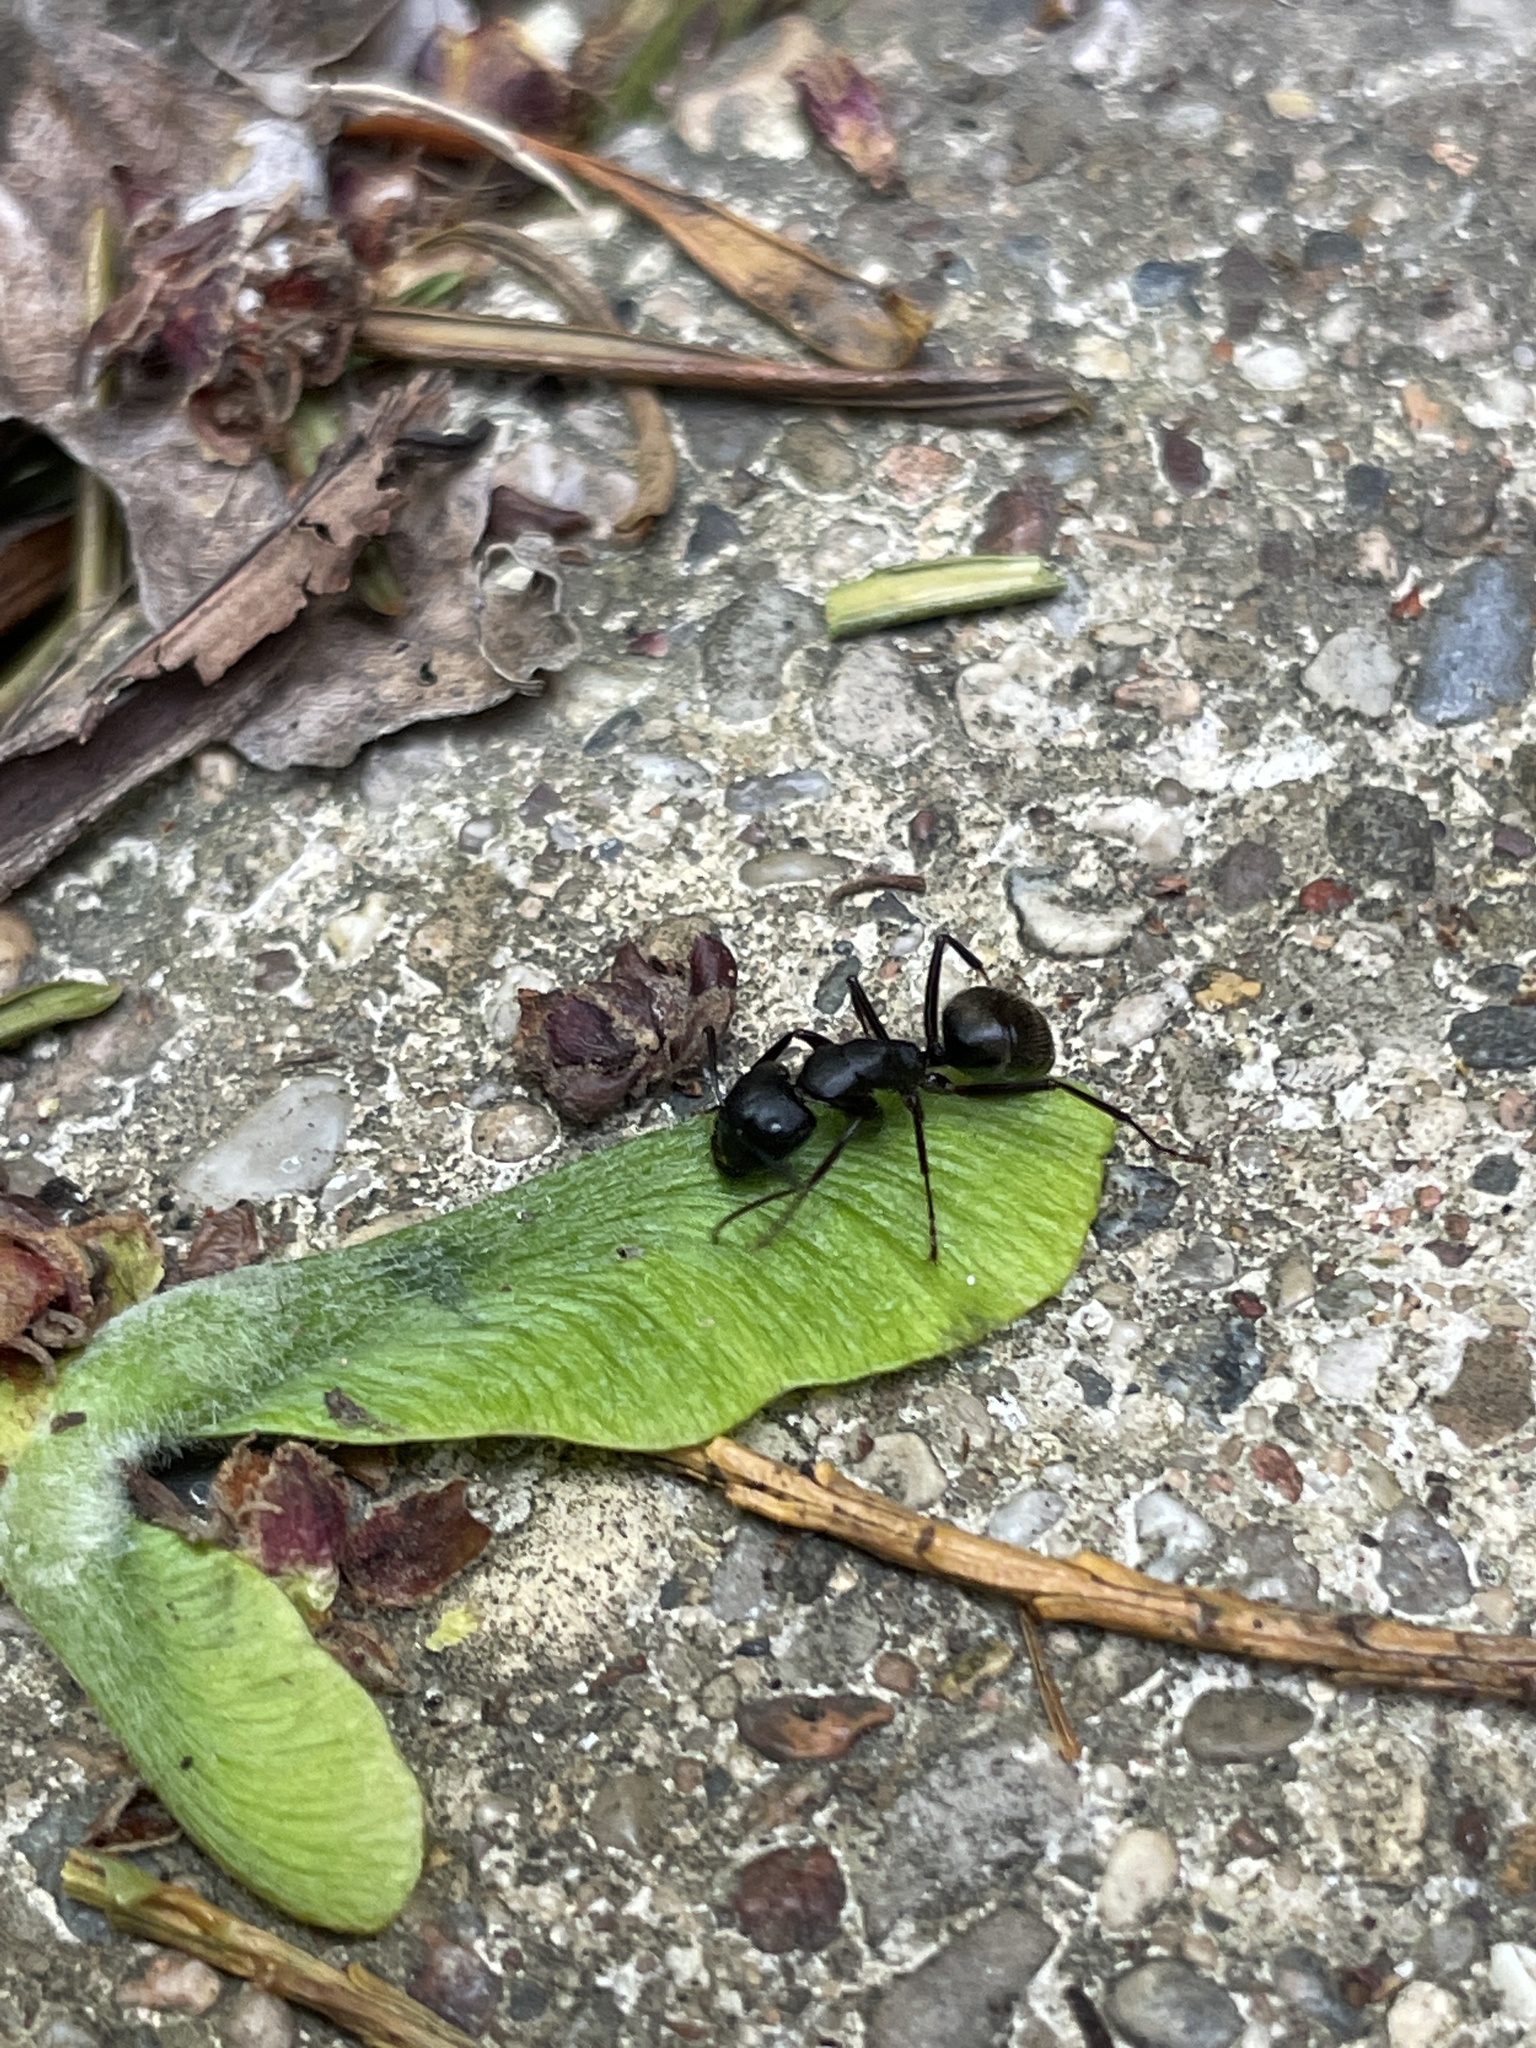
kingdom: Animalia
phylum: Arthropoda
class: Insecta
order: Hymenoptera
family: Formicidae
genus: Camponotus
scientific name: Camponotus pennsylvanicus
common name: Black carpenter ant
